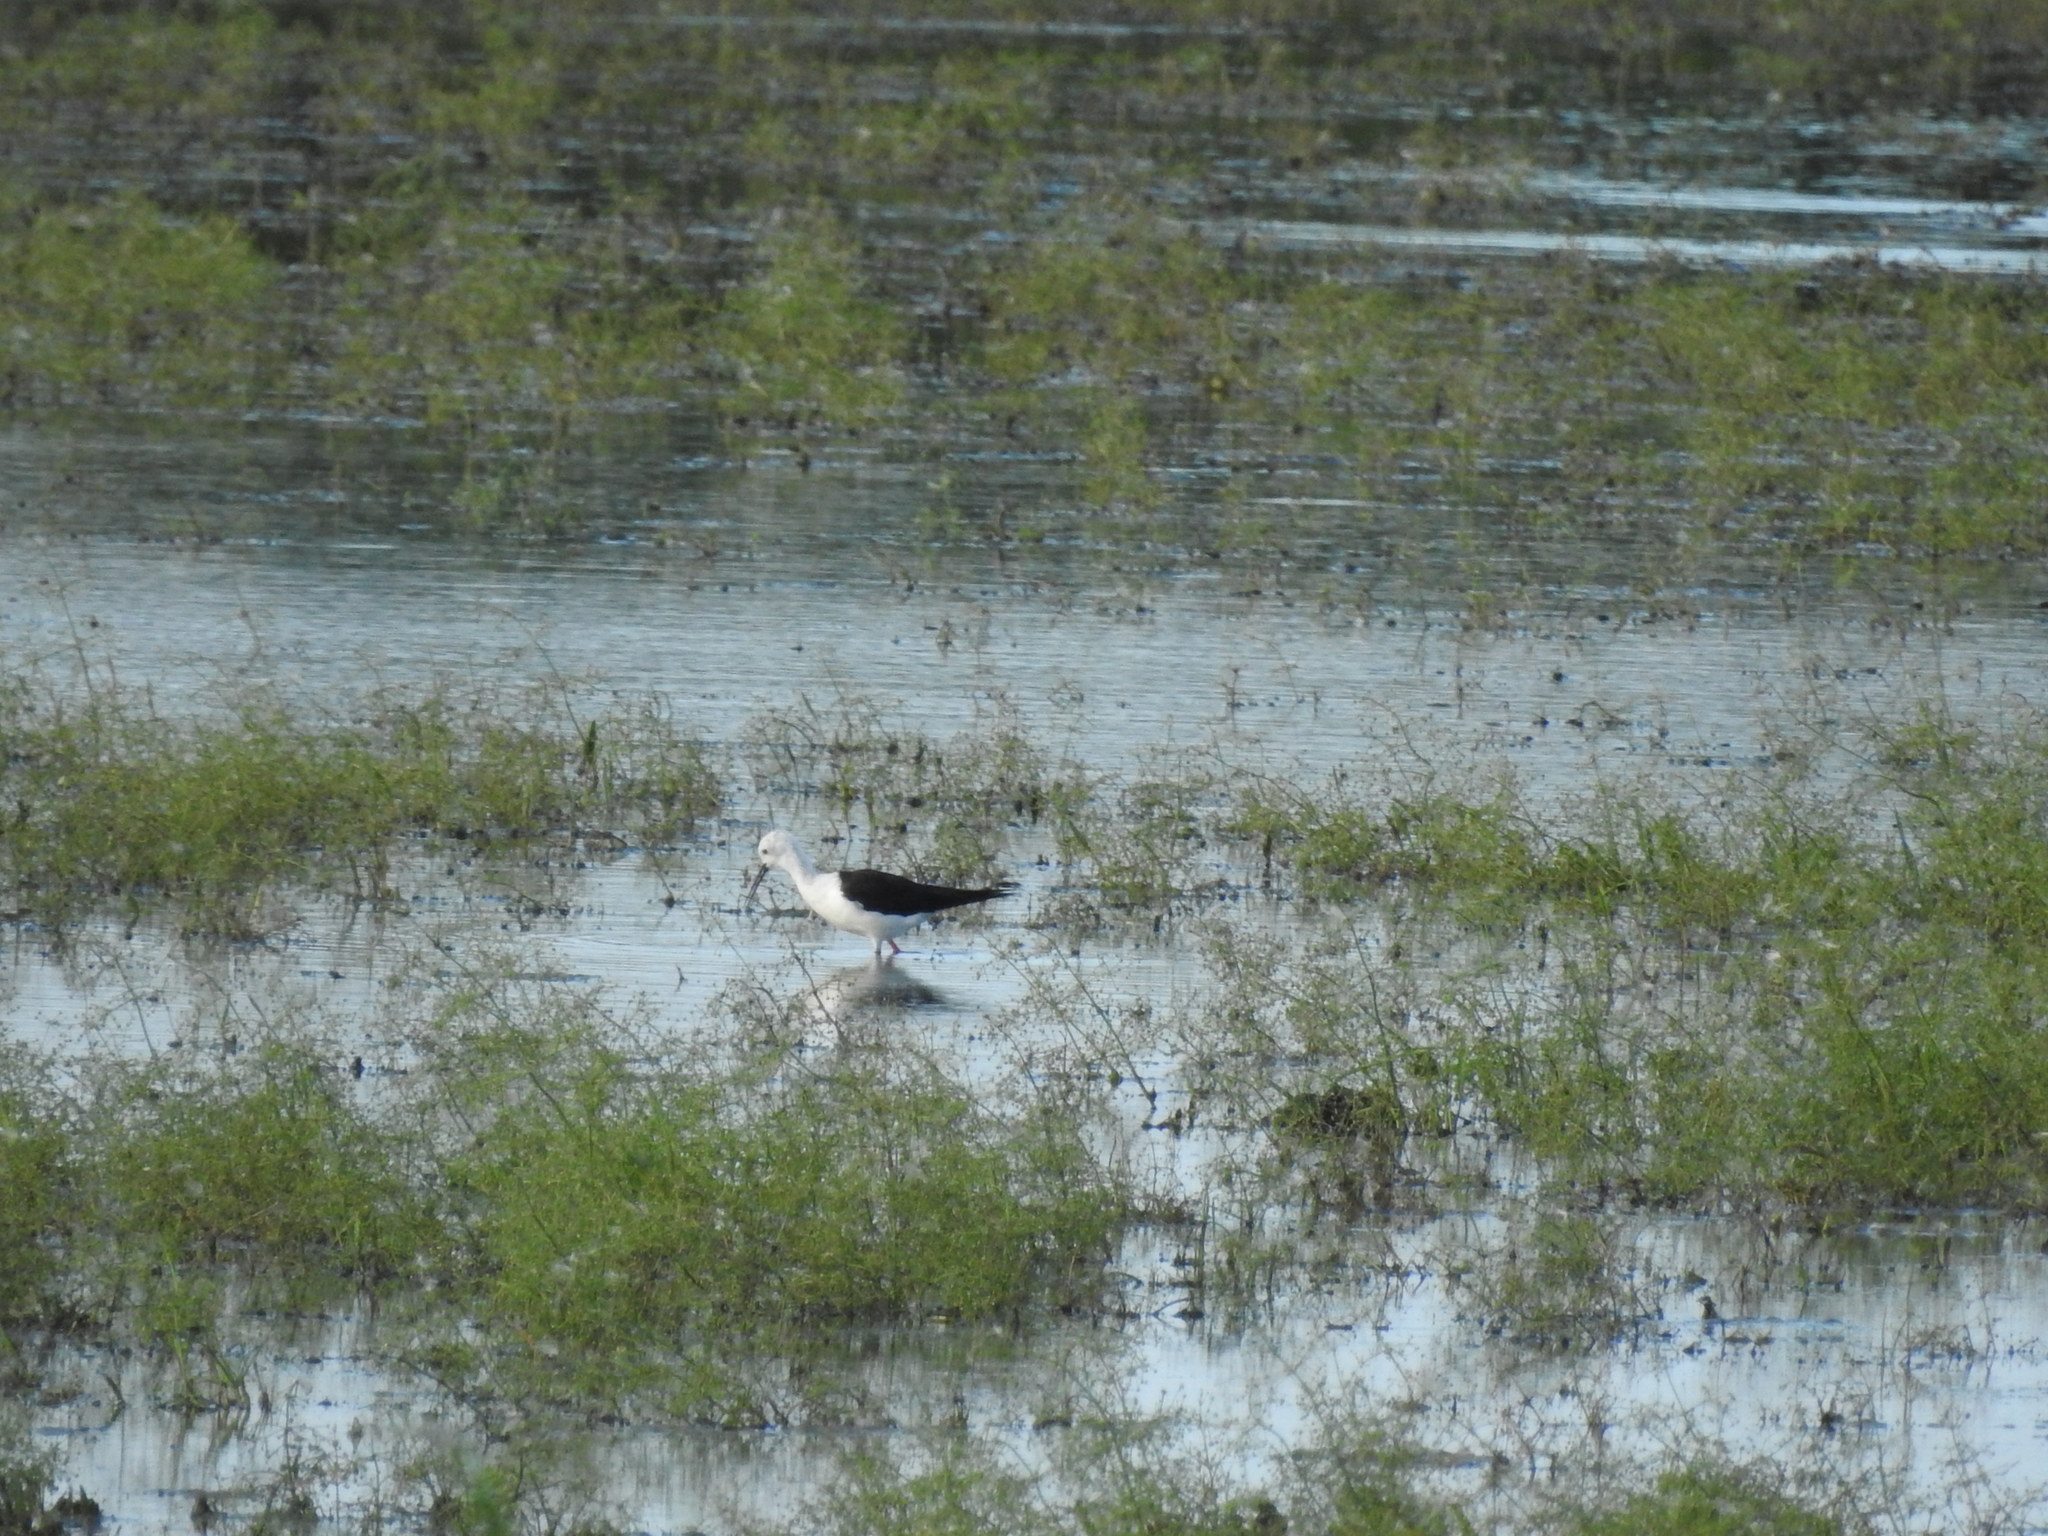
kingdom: Animalia
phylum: Chordata
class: Aves
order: Charadriiformes
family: Recurvirostridae
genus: Himantopus
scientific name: Himantopus himantopus
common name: Black-winged stilt
